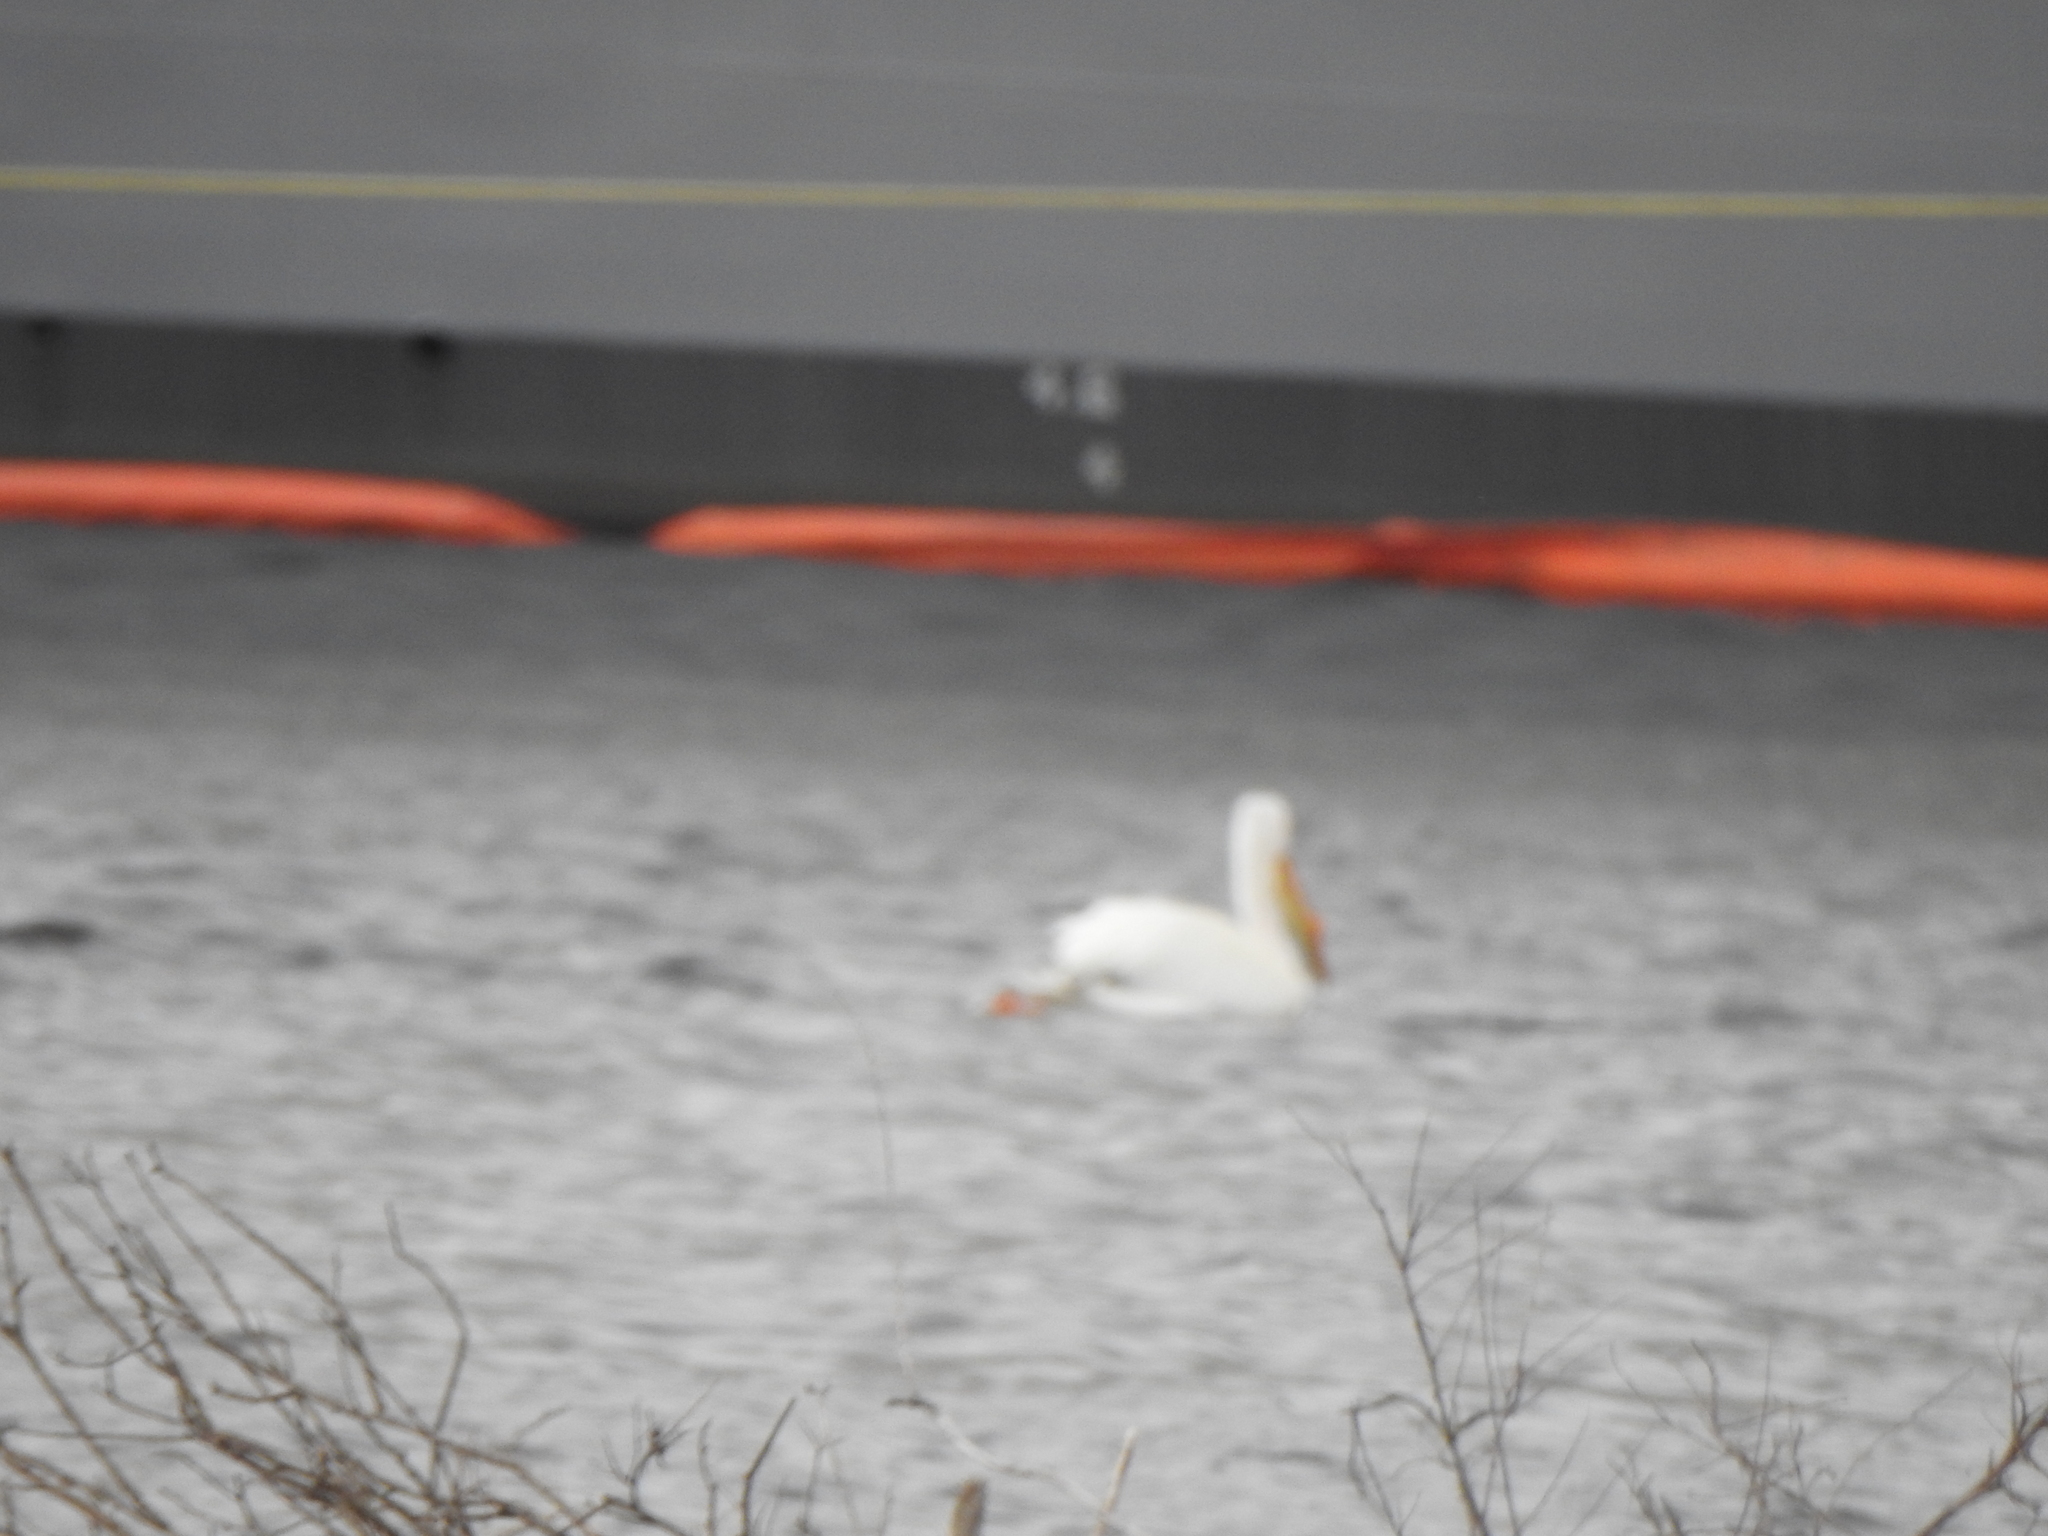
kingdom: Animalia
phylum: Chordata
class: Aves
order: Pelecaniformes
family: Pelecanidae
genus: Pelecanus
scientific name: Pelecanus erythrorhynchos
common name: American white pelican
